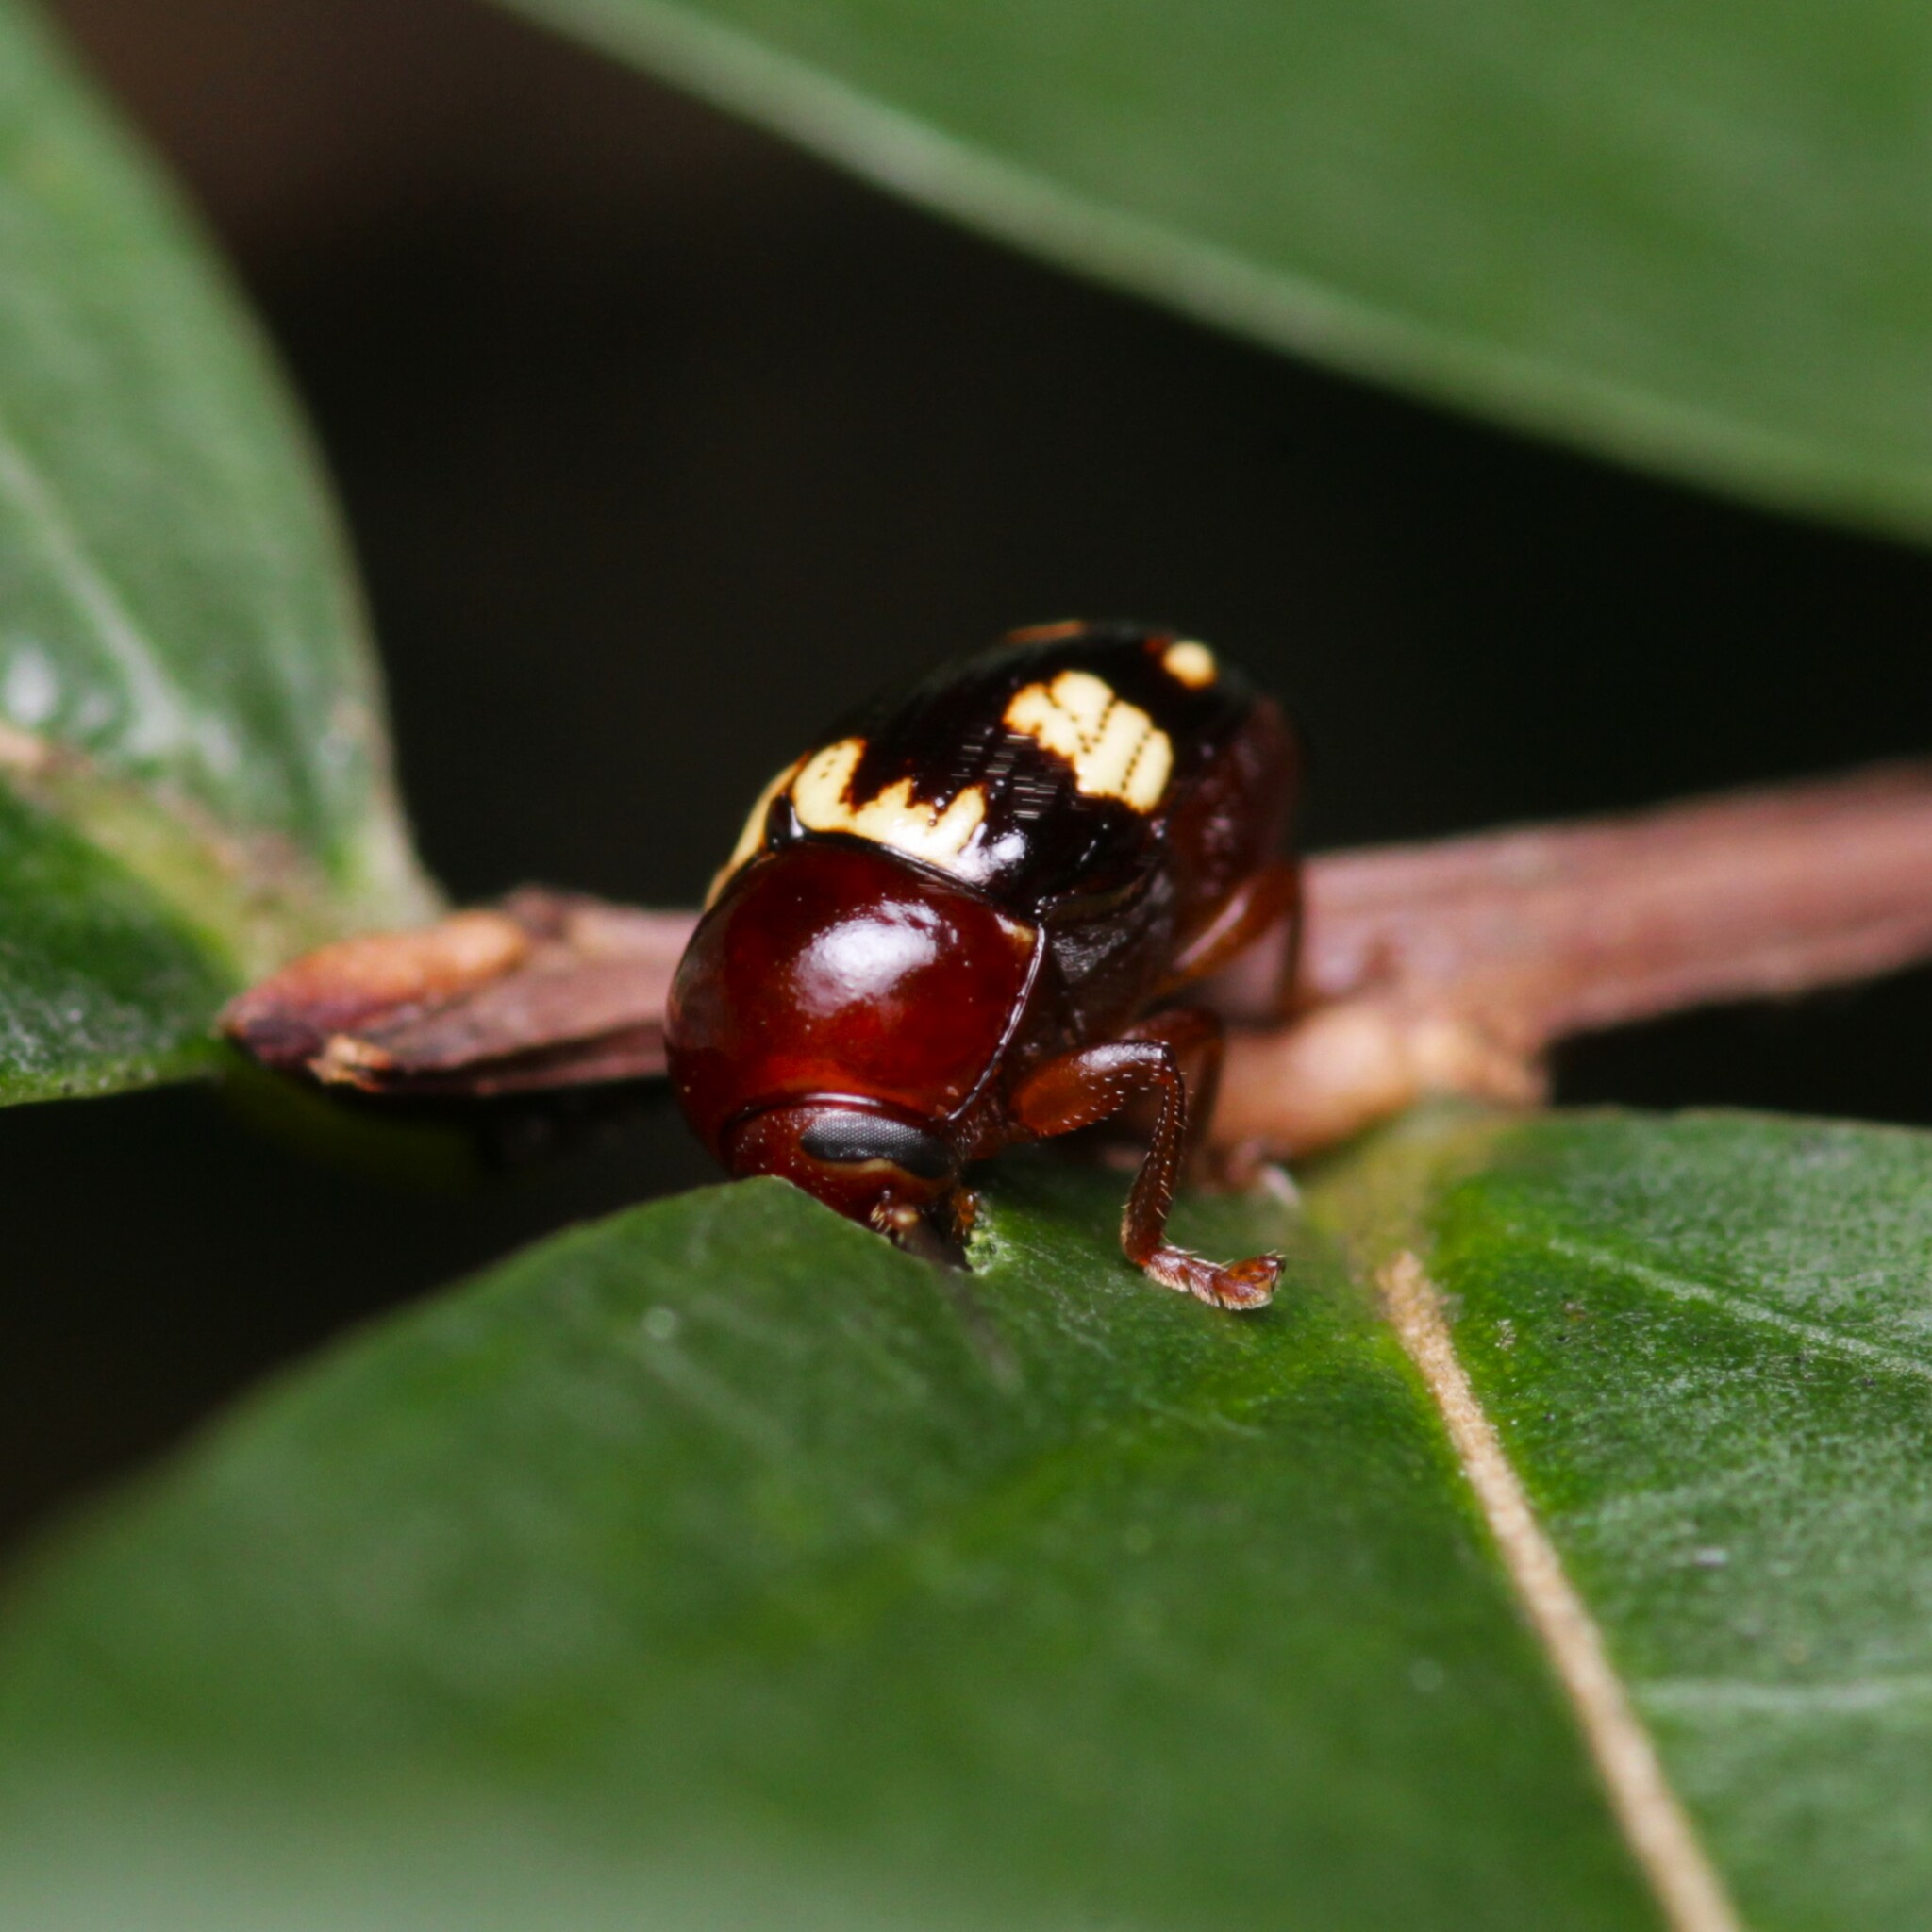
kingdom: Animalia
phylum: Arthropoda
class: Insecta
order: Coleoptera
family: Chrysomelidae
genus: Cryptocephalus
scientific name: Cryptocephalus badius
